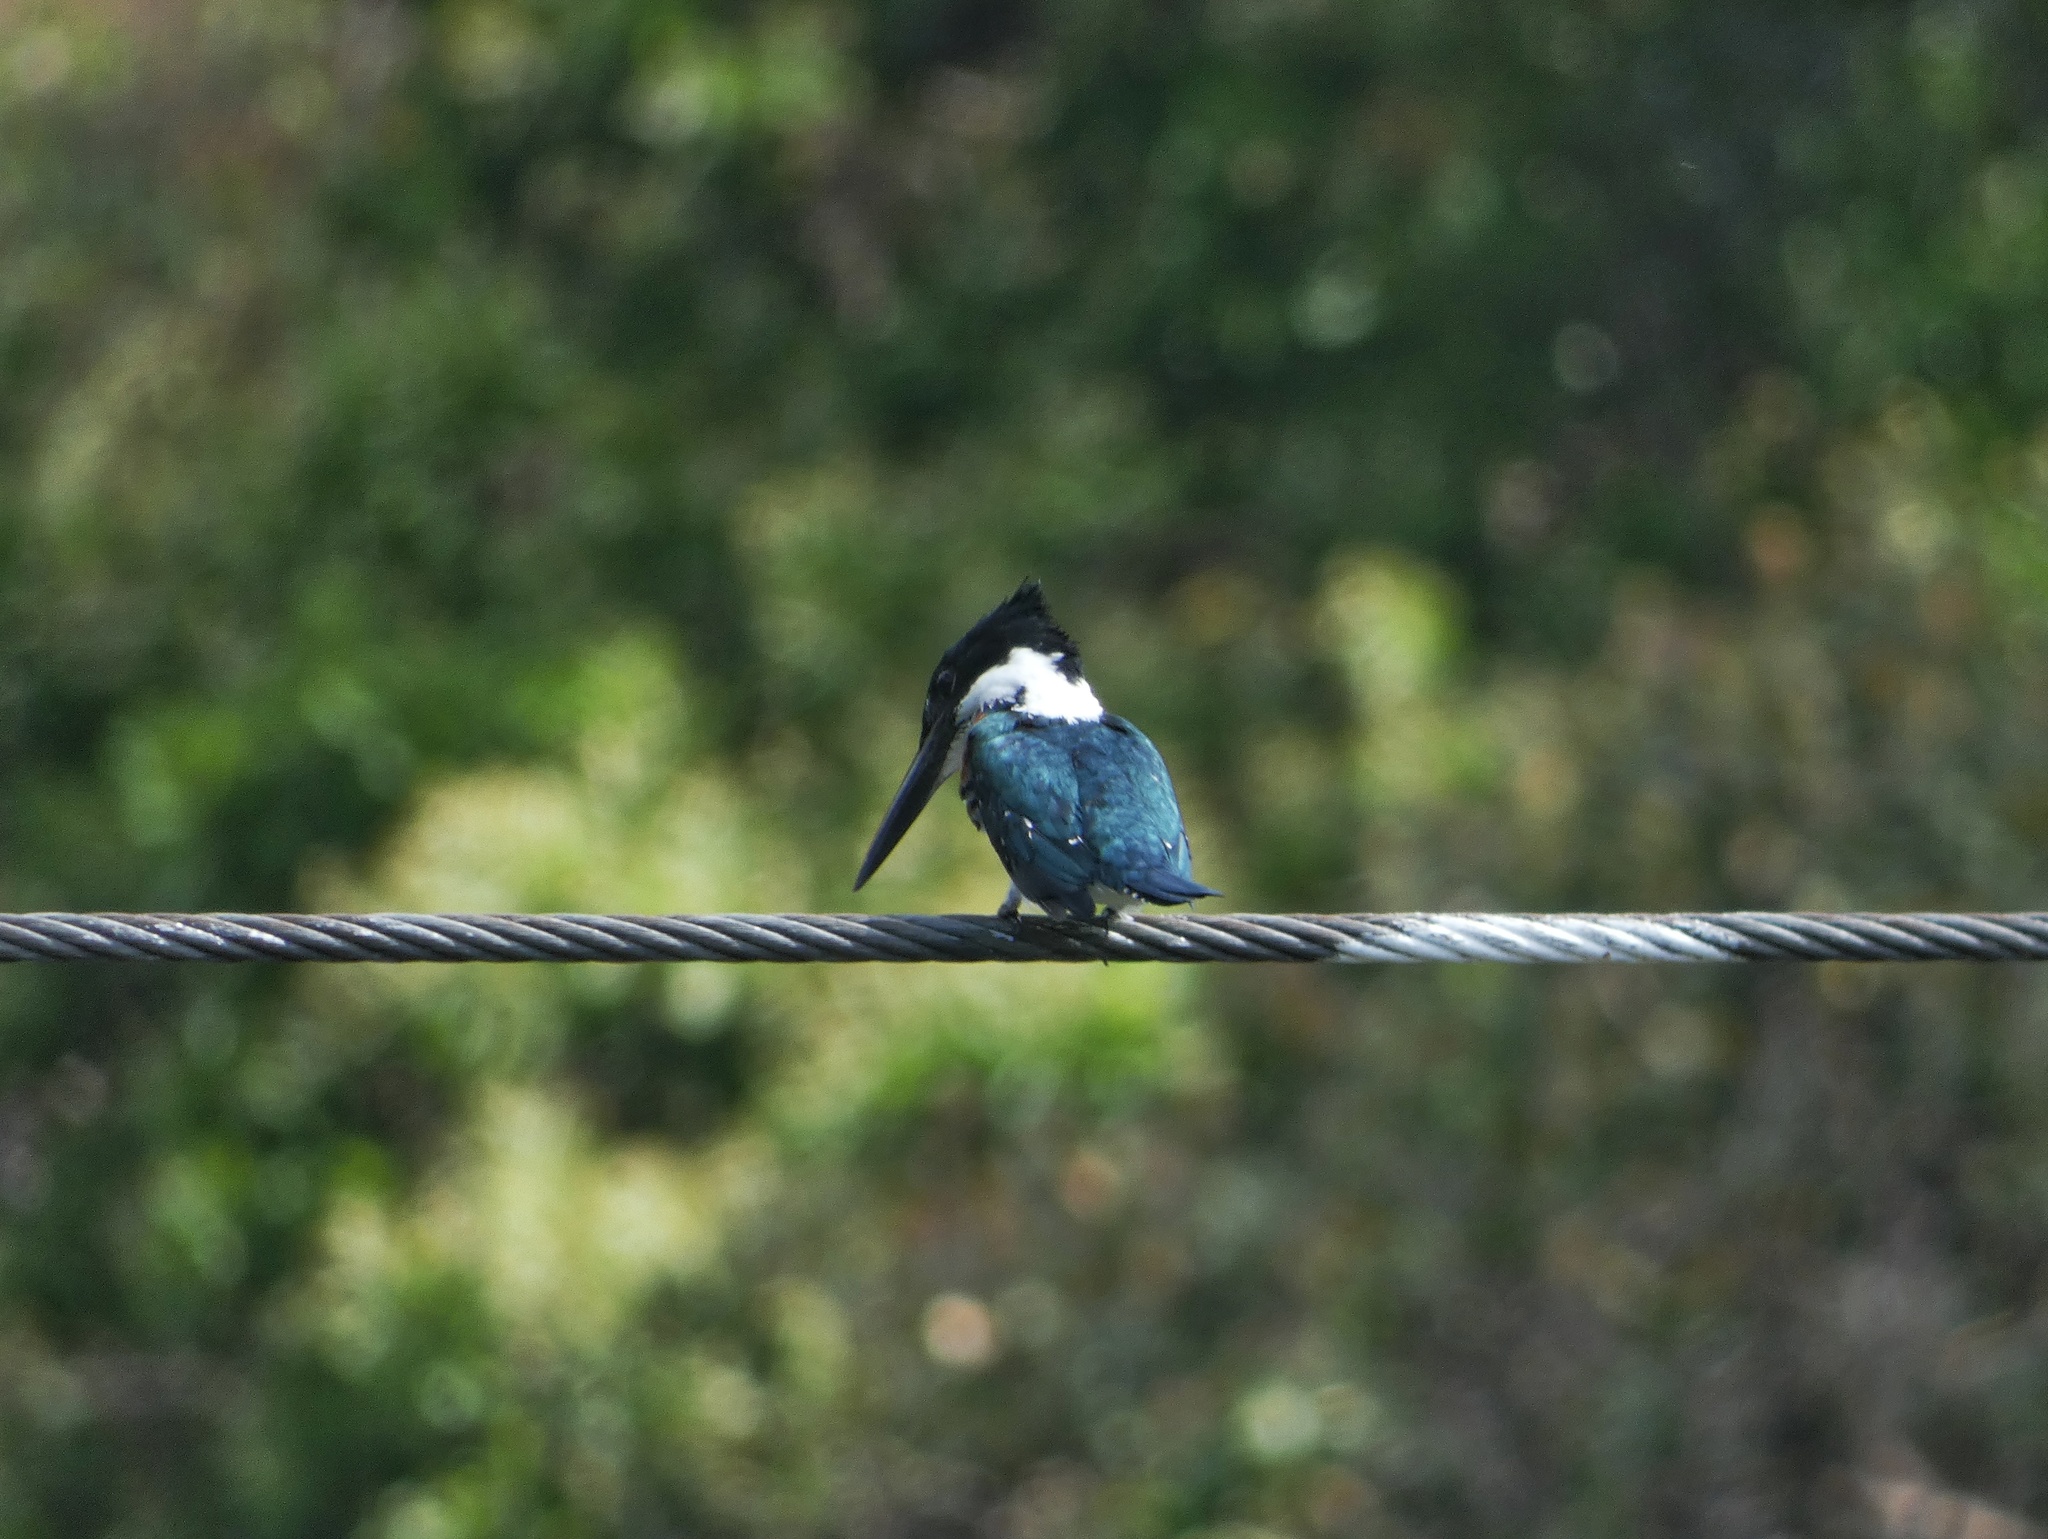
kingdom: Animalia
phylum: Chordata
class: Aves
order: Coraciiformes
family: Alcedinidae
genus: Chloroceryle
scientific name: Chloroceryle amazona
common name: Amazon kingfisher
